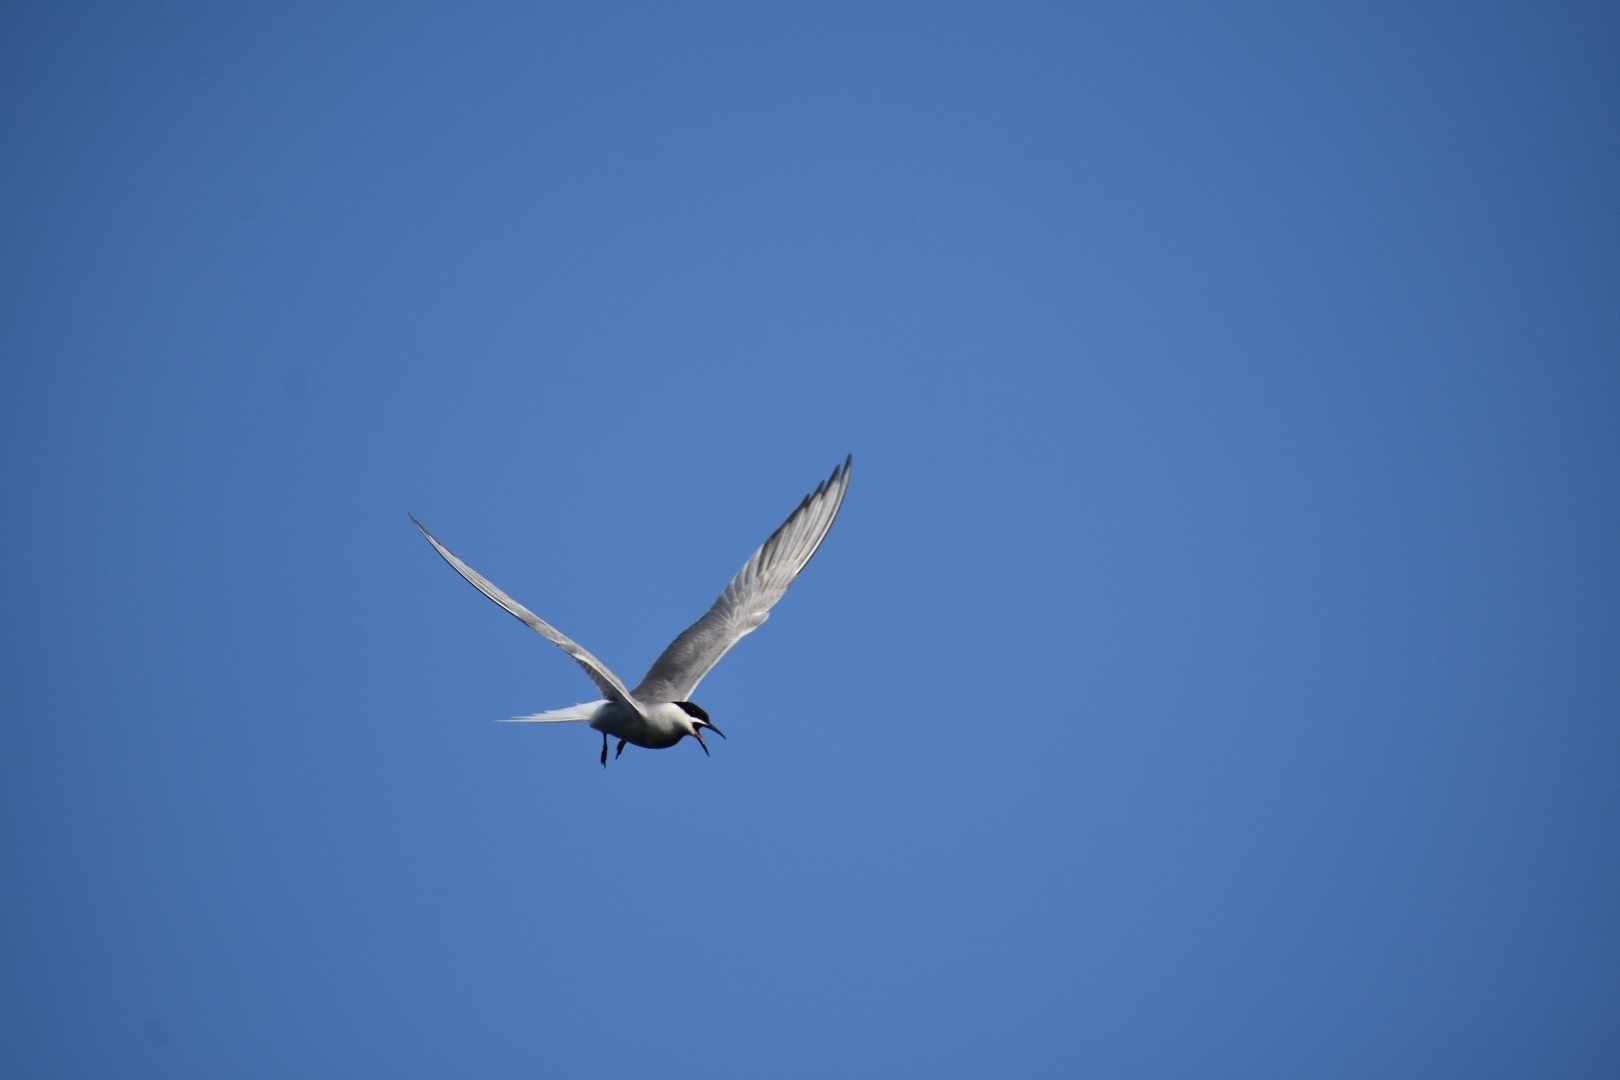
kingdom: Animalia
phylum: Chordata
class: Aves
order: Charadriiformes
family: Laridae
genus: Sterna
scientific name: Sterna hirundo
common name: Common tern
